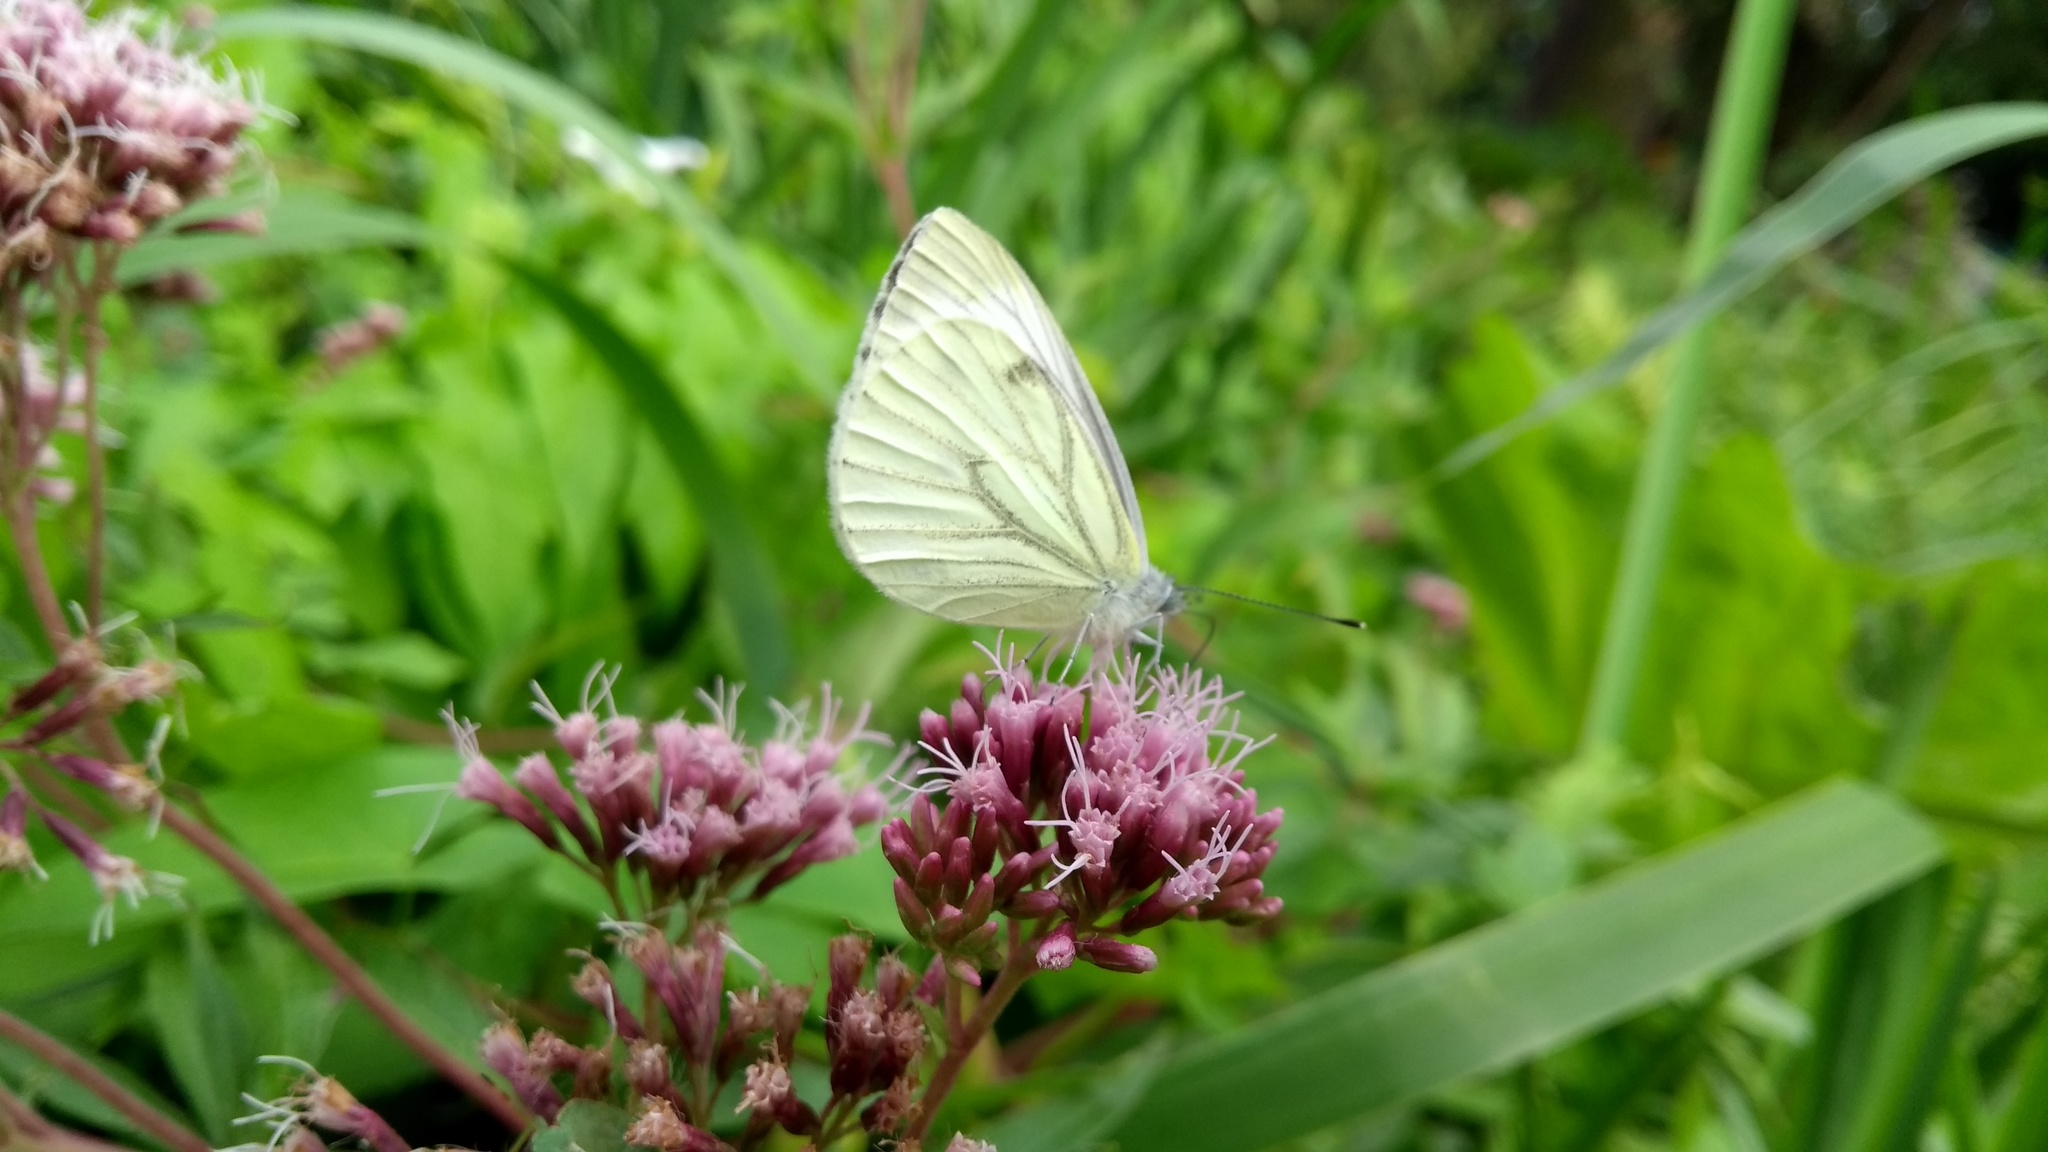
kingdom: Animalia
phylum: Arthropoda
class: Insecta
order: Lepidoptera
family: Pieridae
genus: Pieris
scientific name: Pieris napi
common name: Green-veined white
